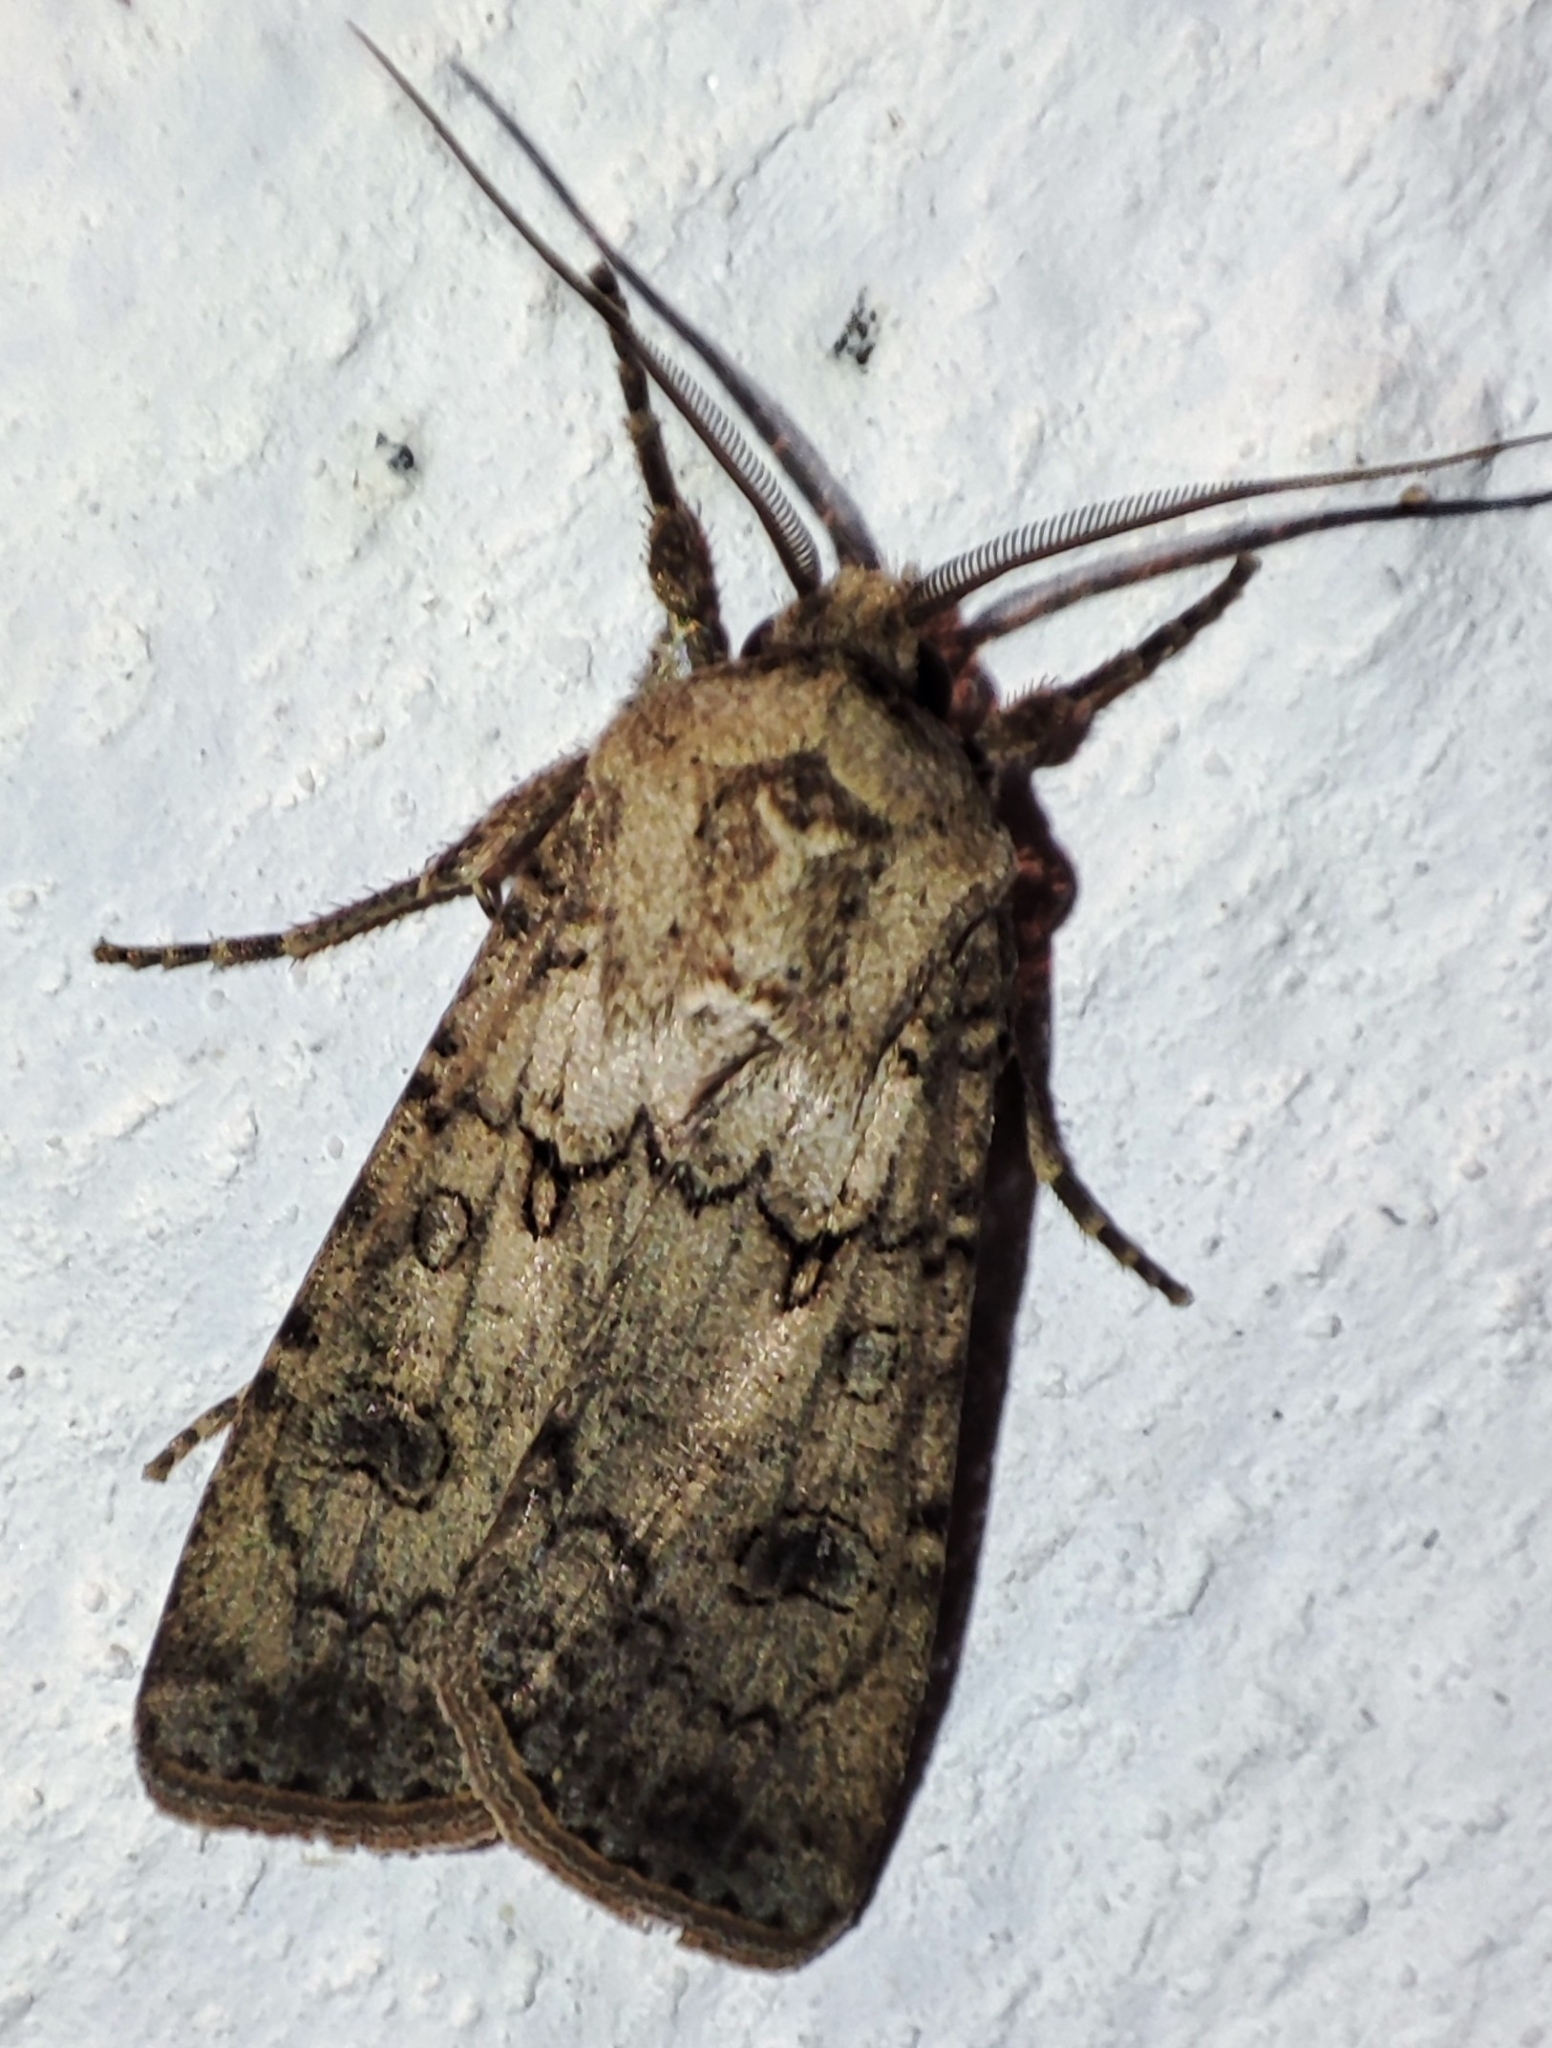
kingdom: Animalia
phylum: Arthropoda
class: Insecta
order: Lepidoptera
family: Noctuidae
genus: Agrotis
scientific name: Agrotis segetum
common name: Turnip moth
